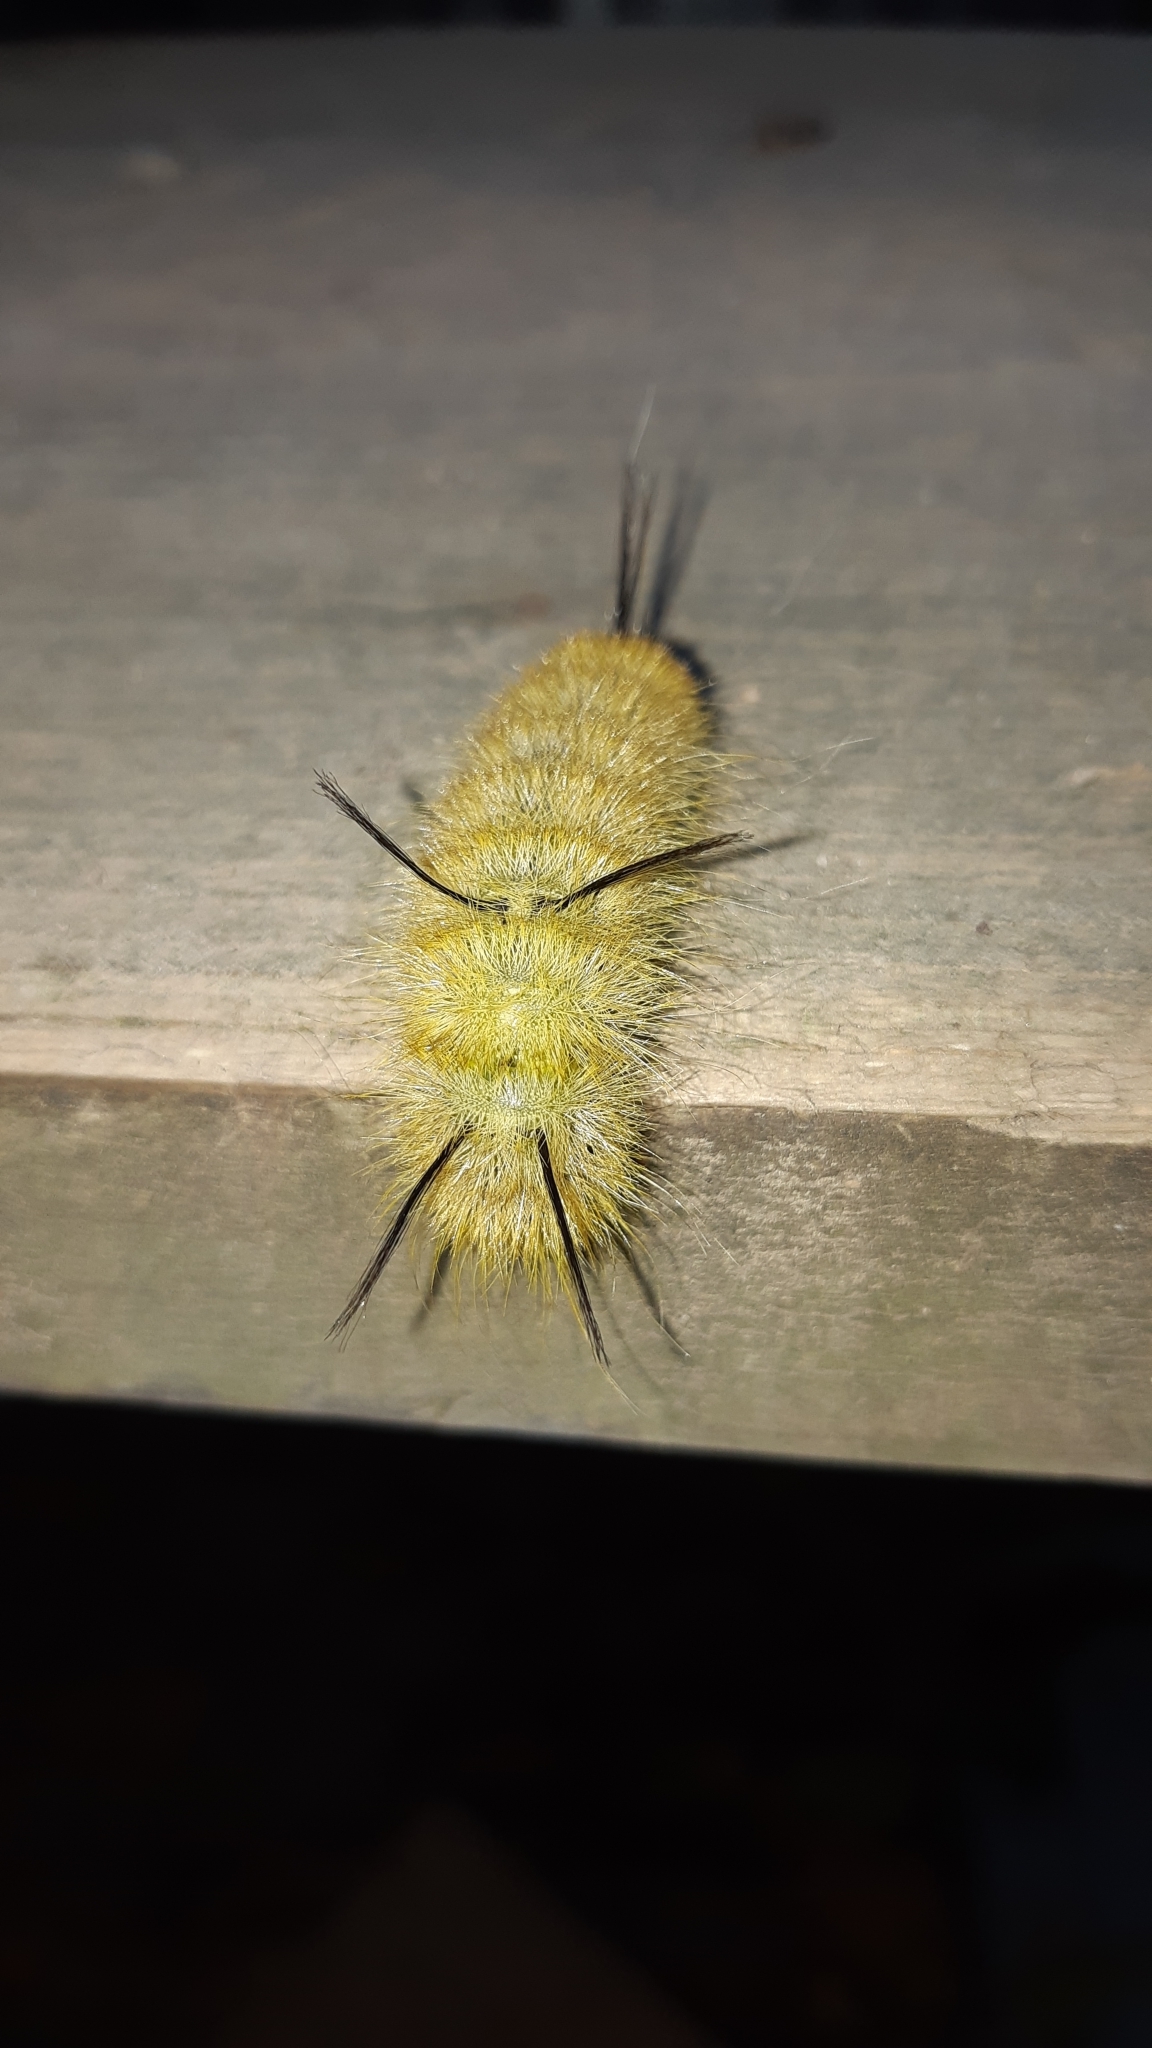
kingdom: Animalia
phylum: Arthropoda
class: Insecta
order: Lepidoptera
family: Noctuidae
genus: Acronicta
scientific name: Acronicta americana
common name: American dagger
